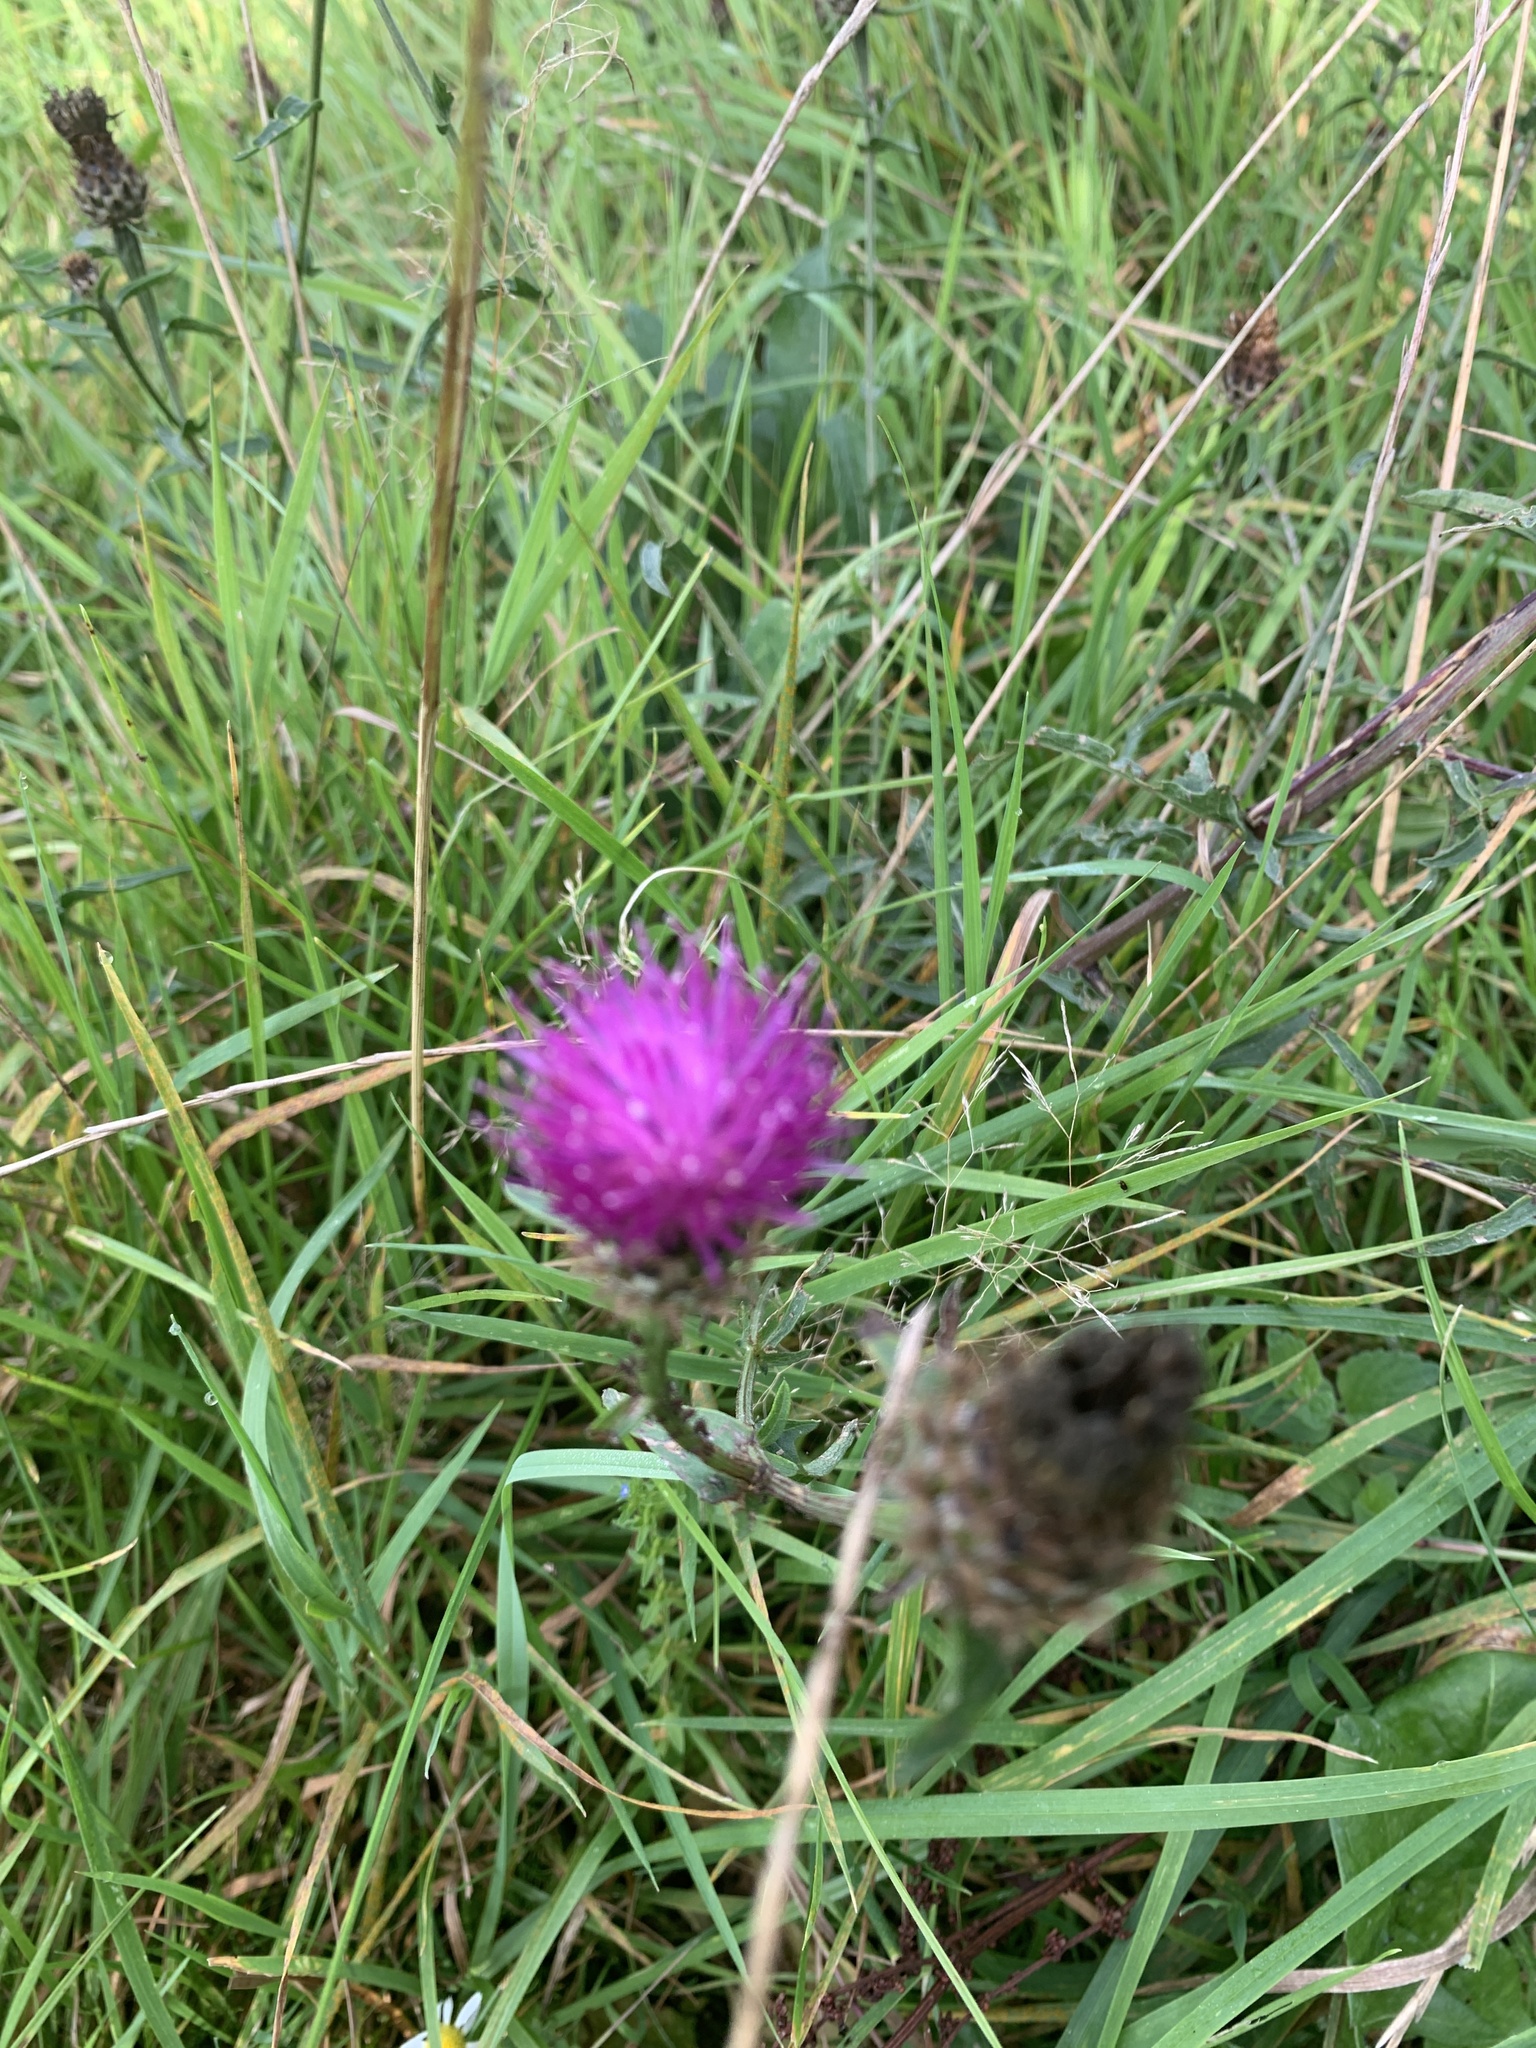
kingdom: Plantae
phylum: Tracheophyta
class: Magnoliopsida
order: Asterales
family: Asteraceae
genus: Centaurea
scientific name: Centaurea nigra
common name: Lesser knapweed
